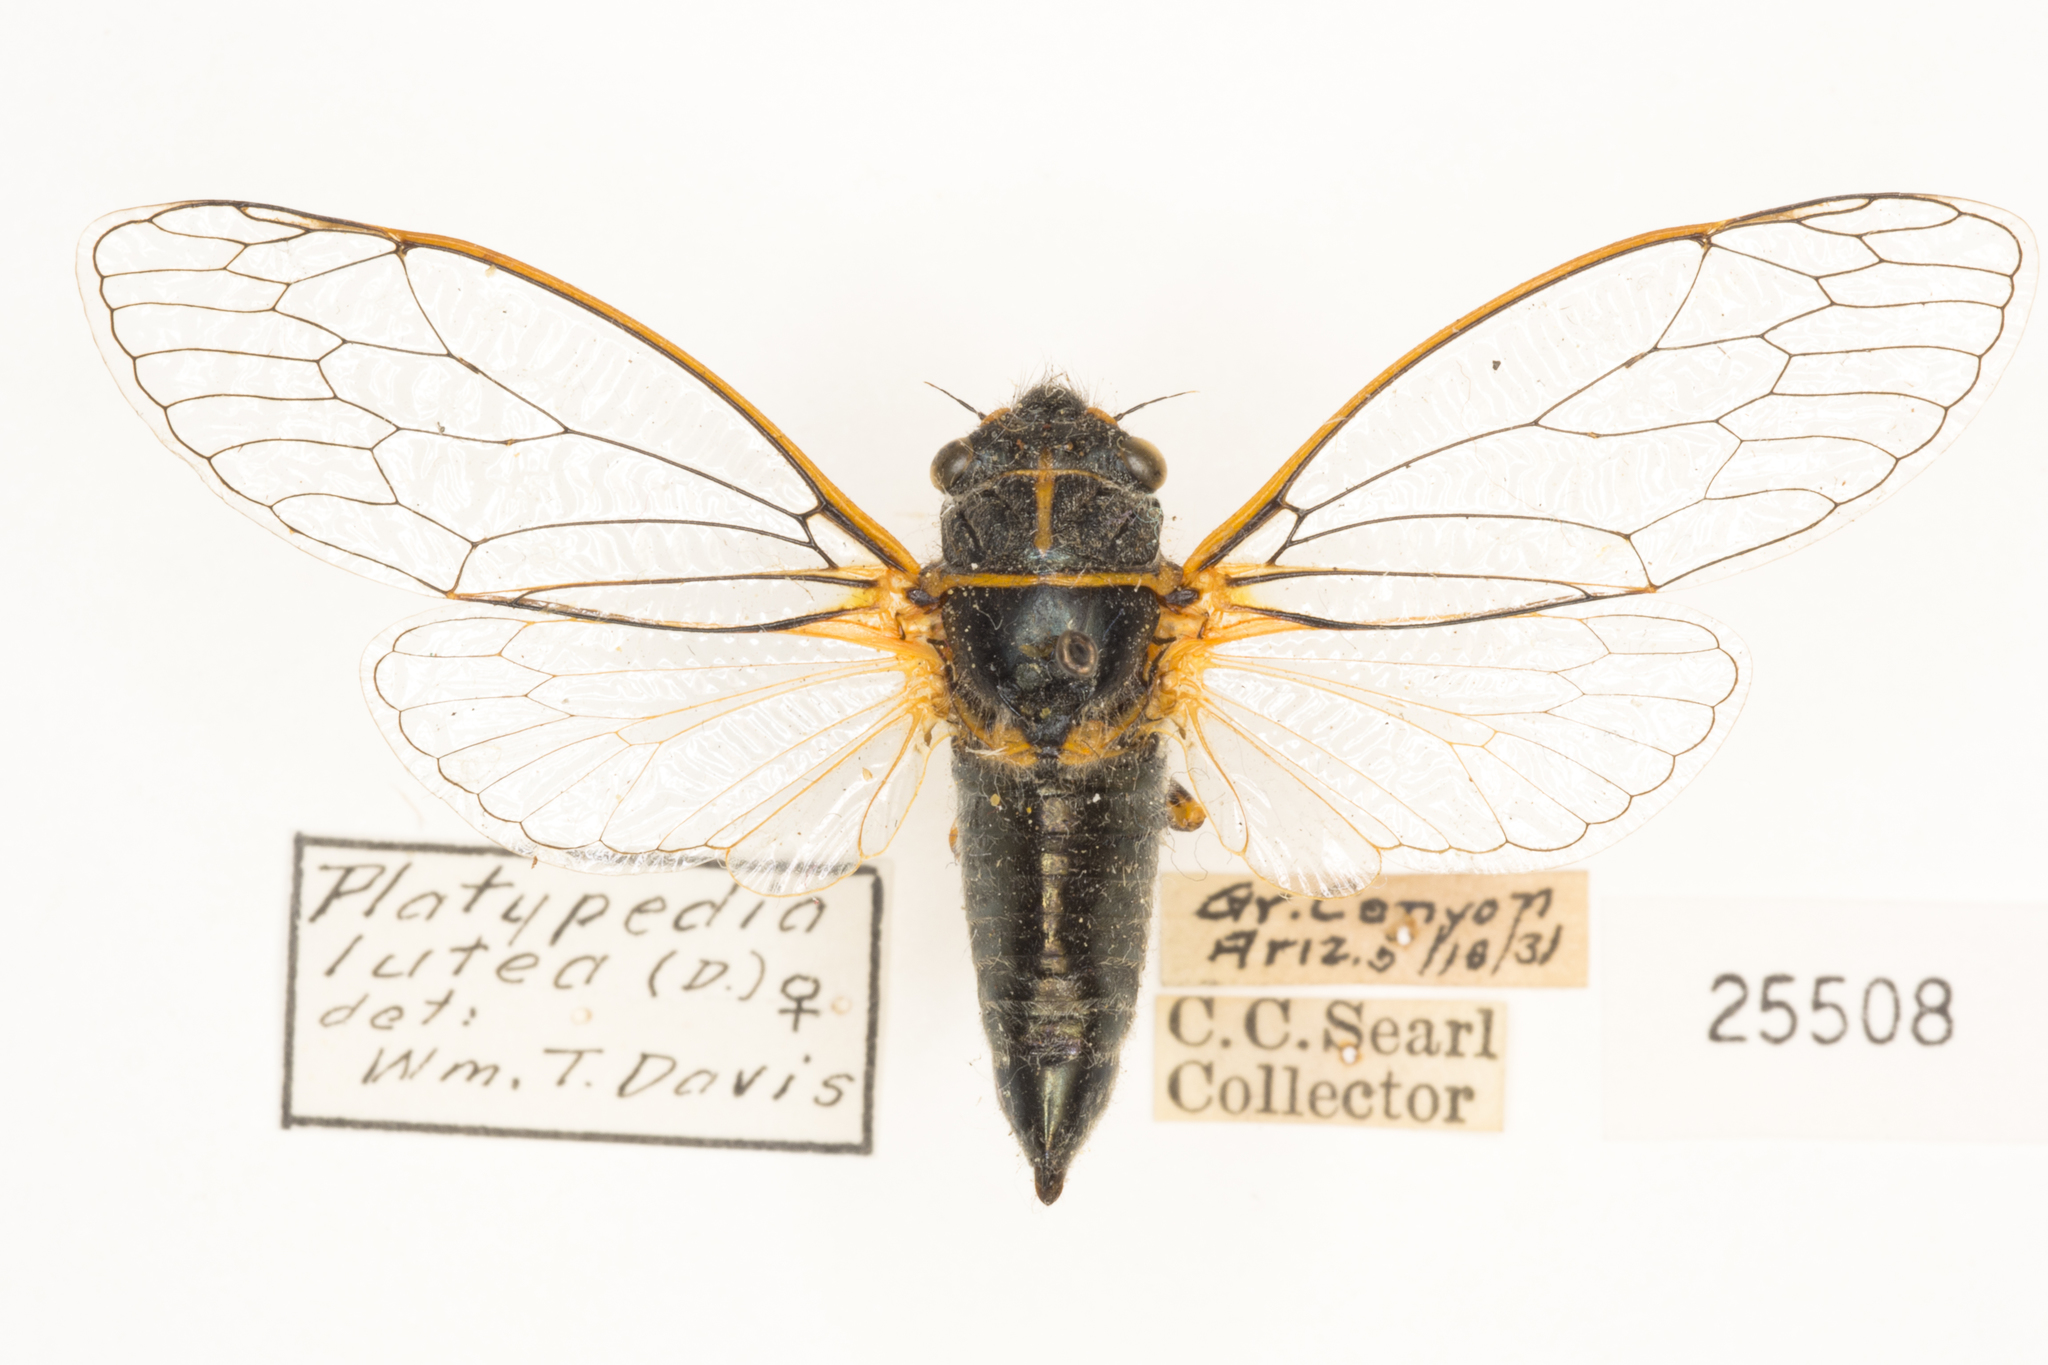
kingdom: Animalia
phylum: Arthropoda
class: Insecta
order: Hemiptera
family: Cicadidae
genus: Platypedia
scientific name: Platypedia putnami
